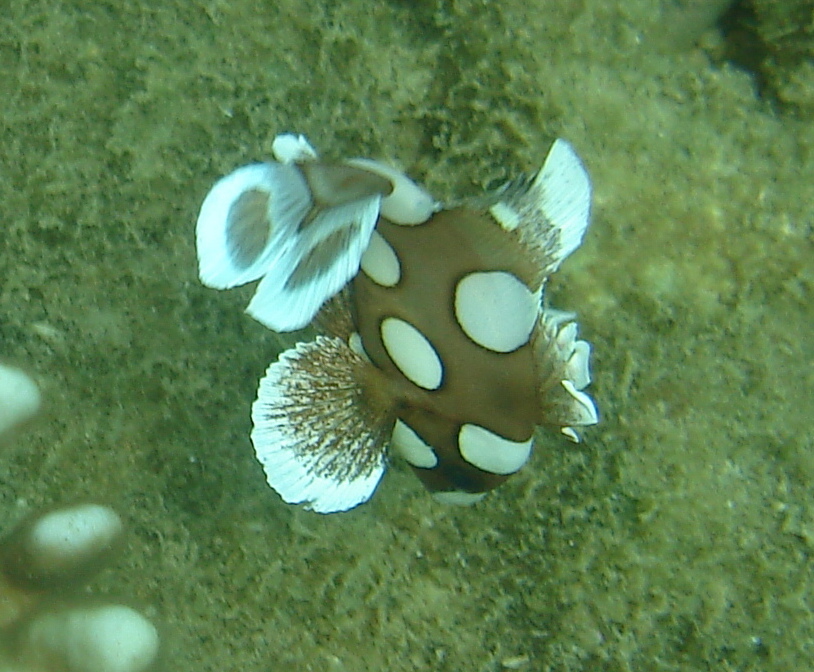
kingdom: Animalia
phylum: Chordata
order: Perciformes
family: Haemulidae
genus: Plectorhinchus
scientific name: Plectorhinchus chaetodonoides
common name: Harlequin sweetlips
